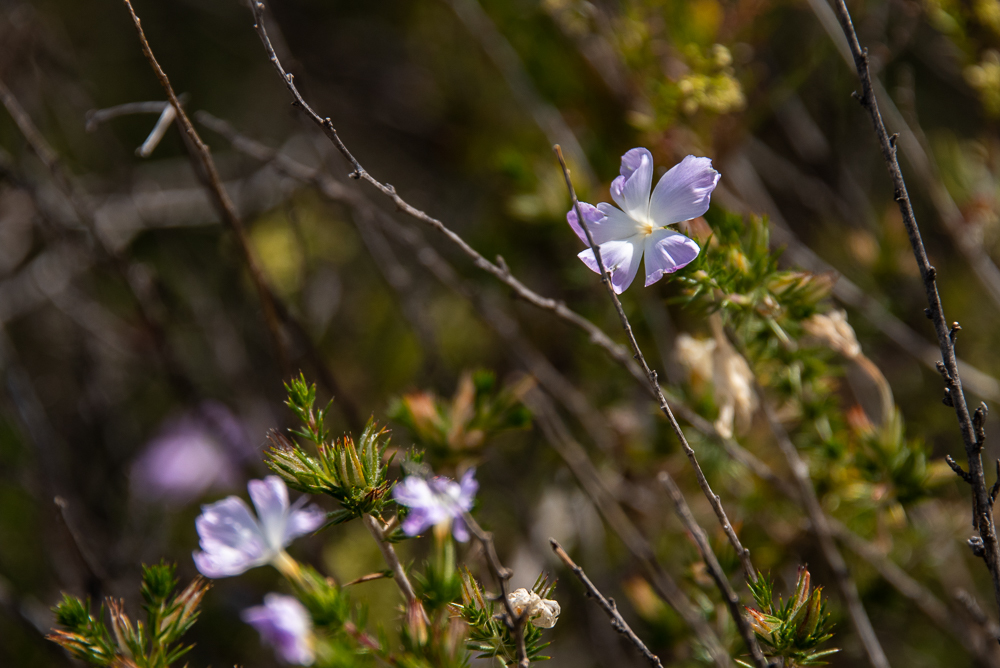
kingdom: Plantae
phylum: Tracheophyta
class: Magnoliopsida
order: Ericales
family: Polemoniaceae
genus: Linanthus
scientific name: Linanthus californicus
